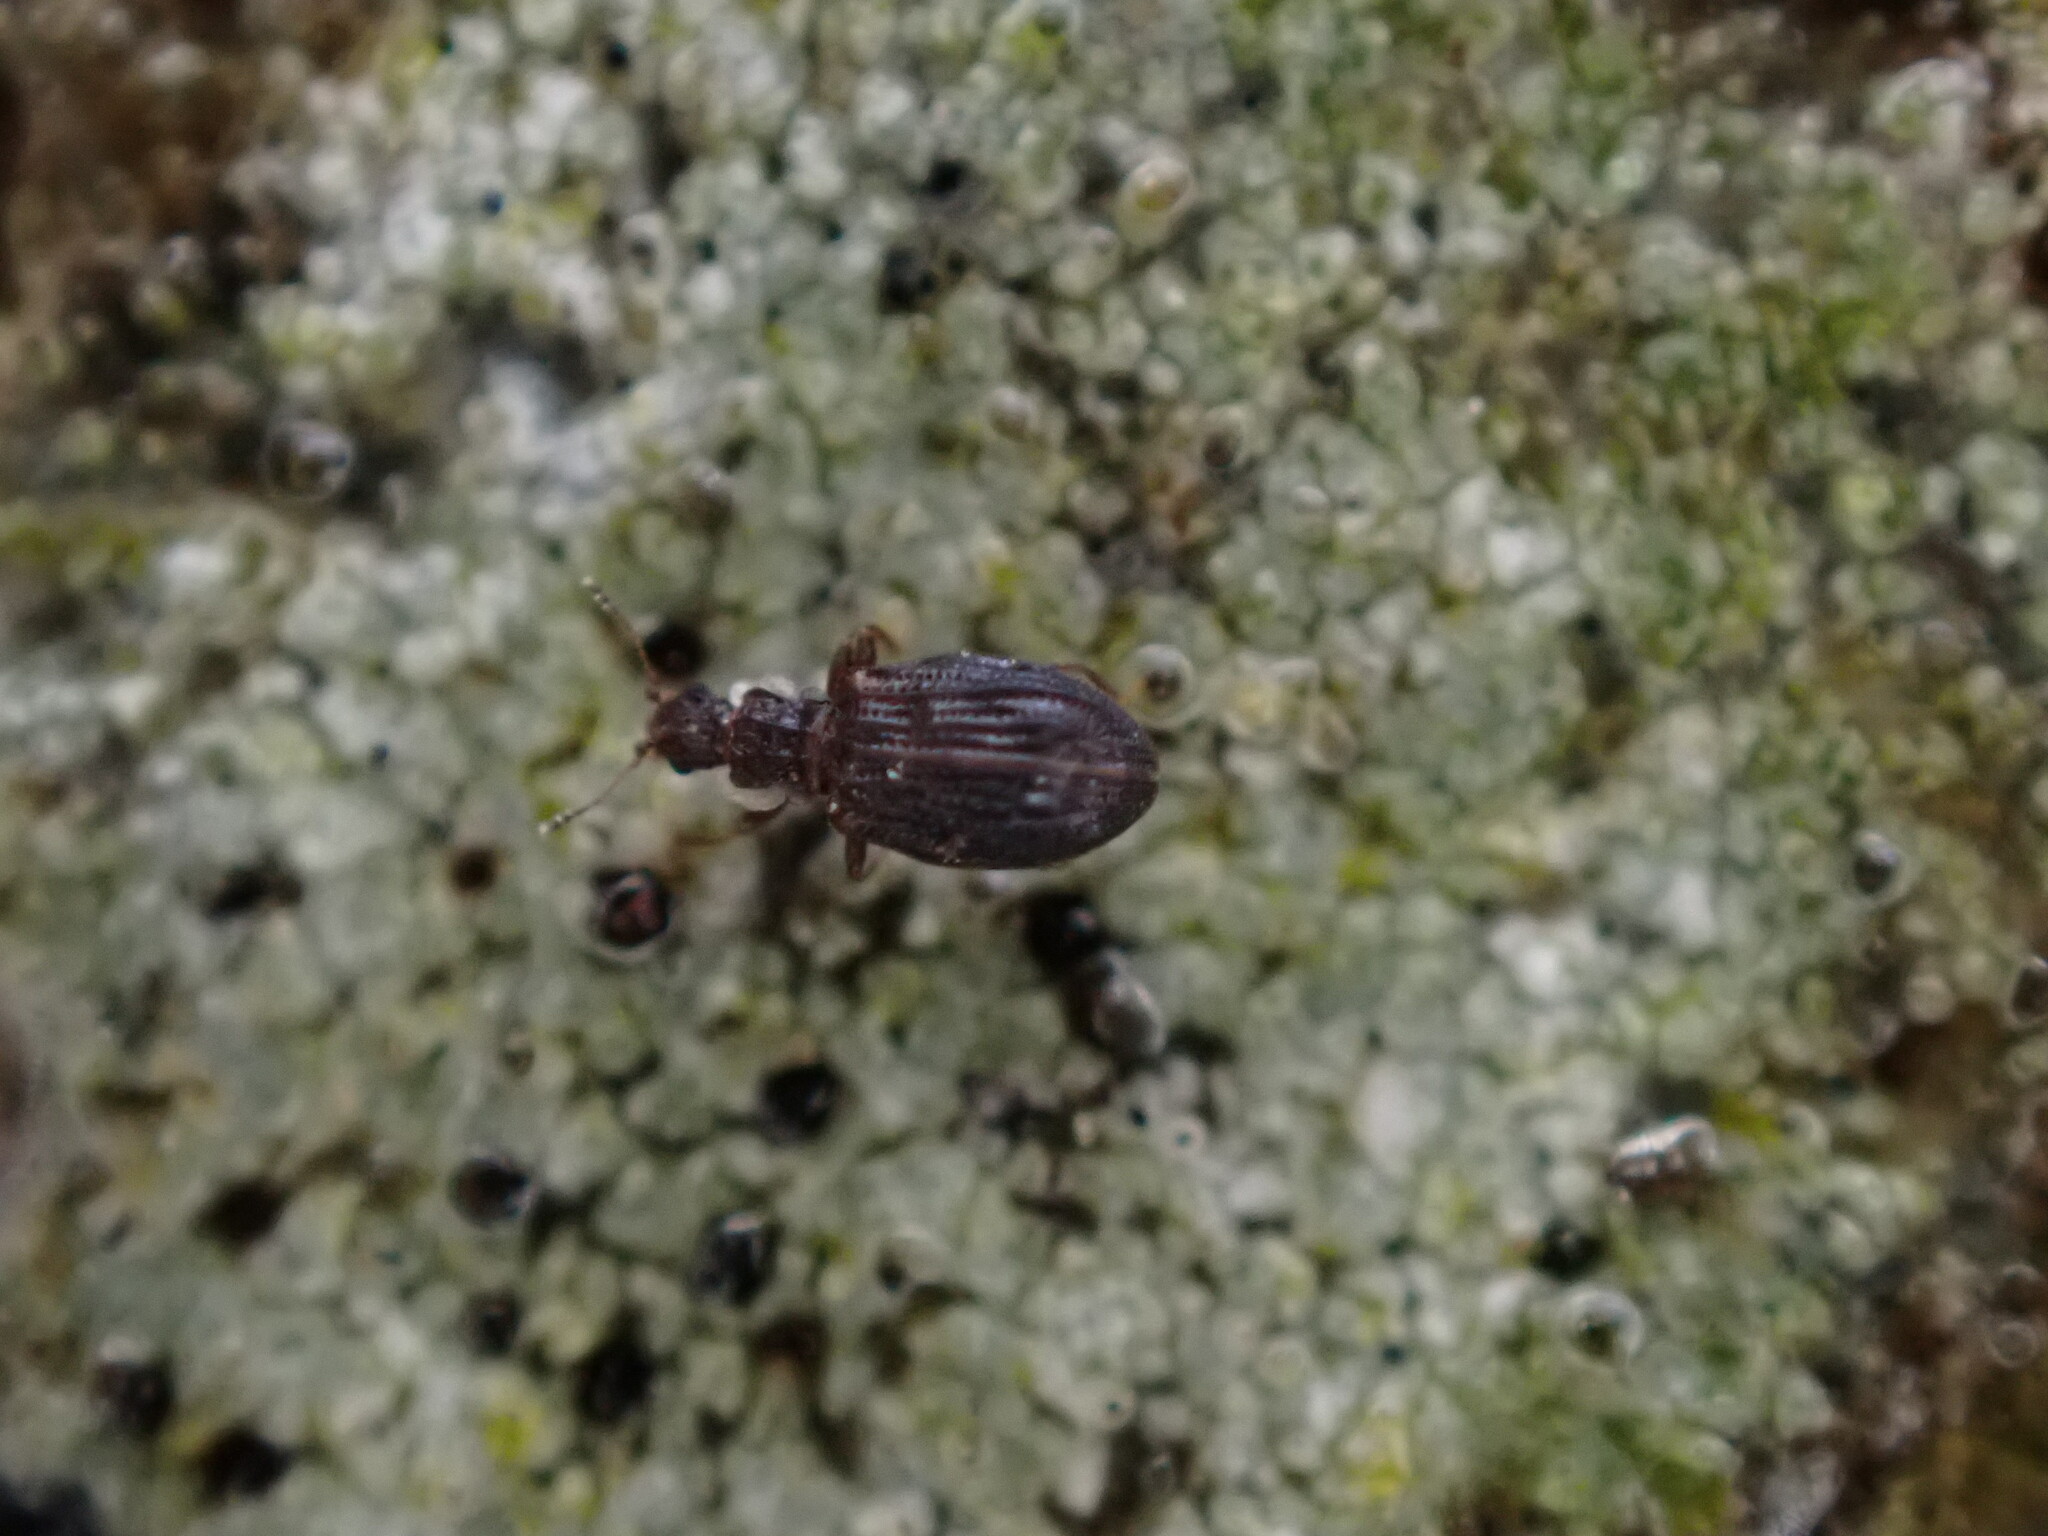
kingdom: Animalia
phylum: Arthropoda
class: Insecta
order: Coleoptera
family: Latridiidae
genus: Cartodere
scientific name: Cartodere nodifer
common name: Humpbacked minute scavenger beetle
